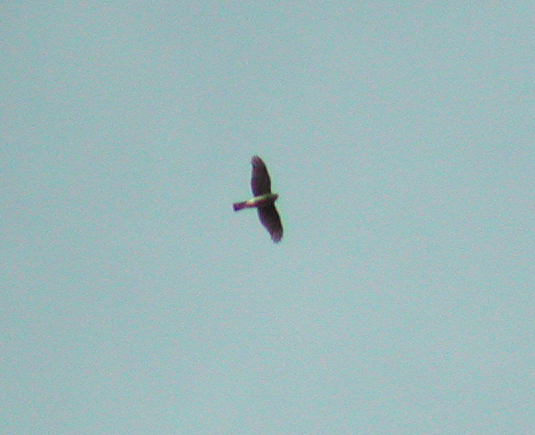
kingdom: Animalia
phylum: Chordata
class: Aves
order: Accipitriformes
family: Accipitridae
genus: Accipiter
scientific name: Accipiter nisus
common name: Eurasian sparrowhawk
